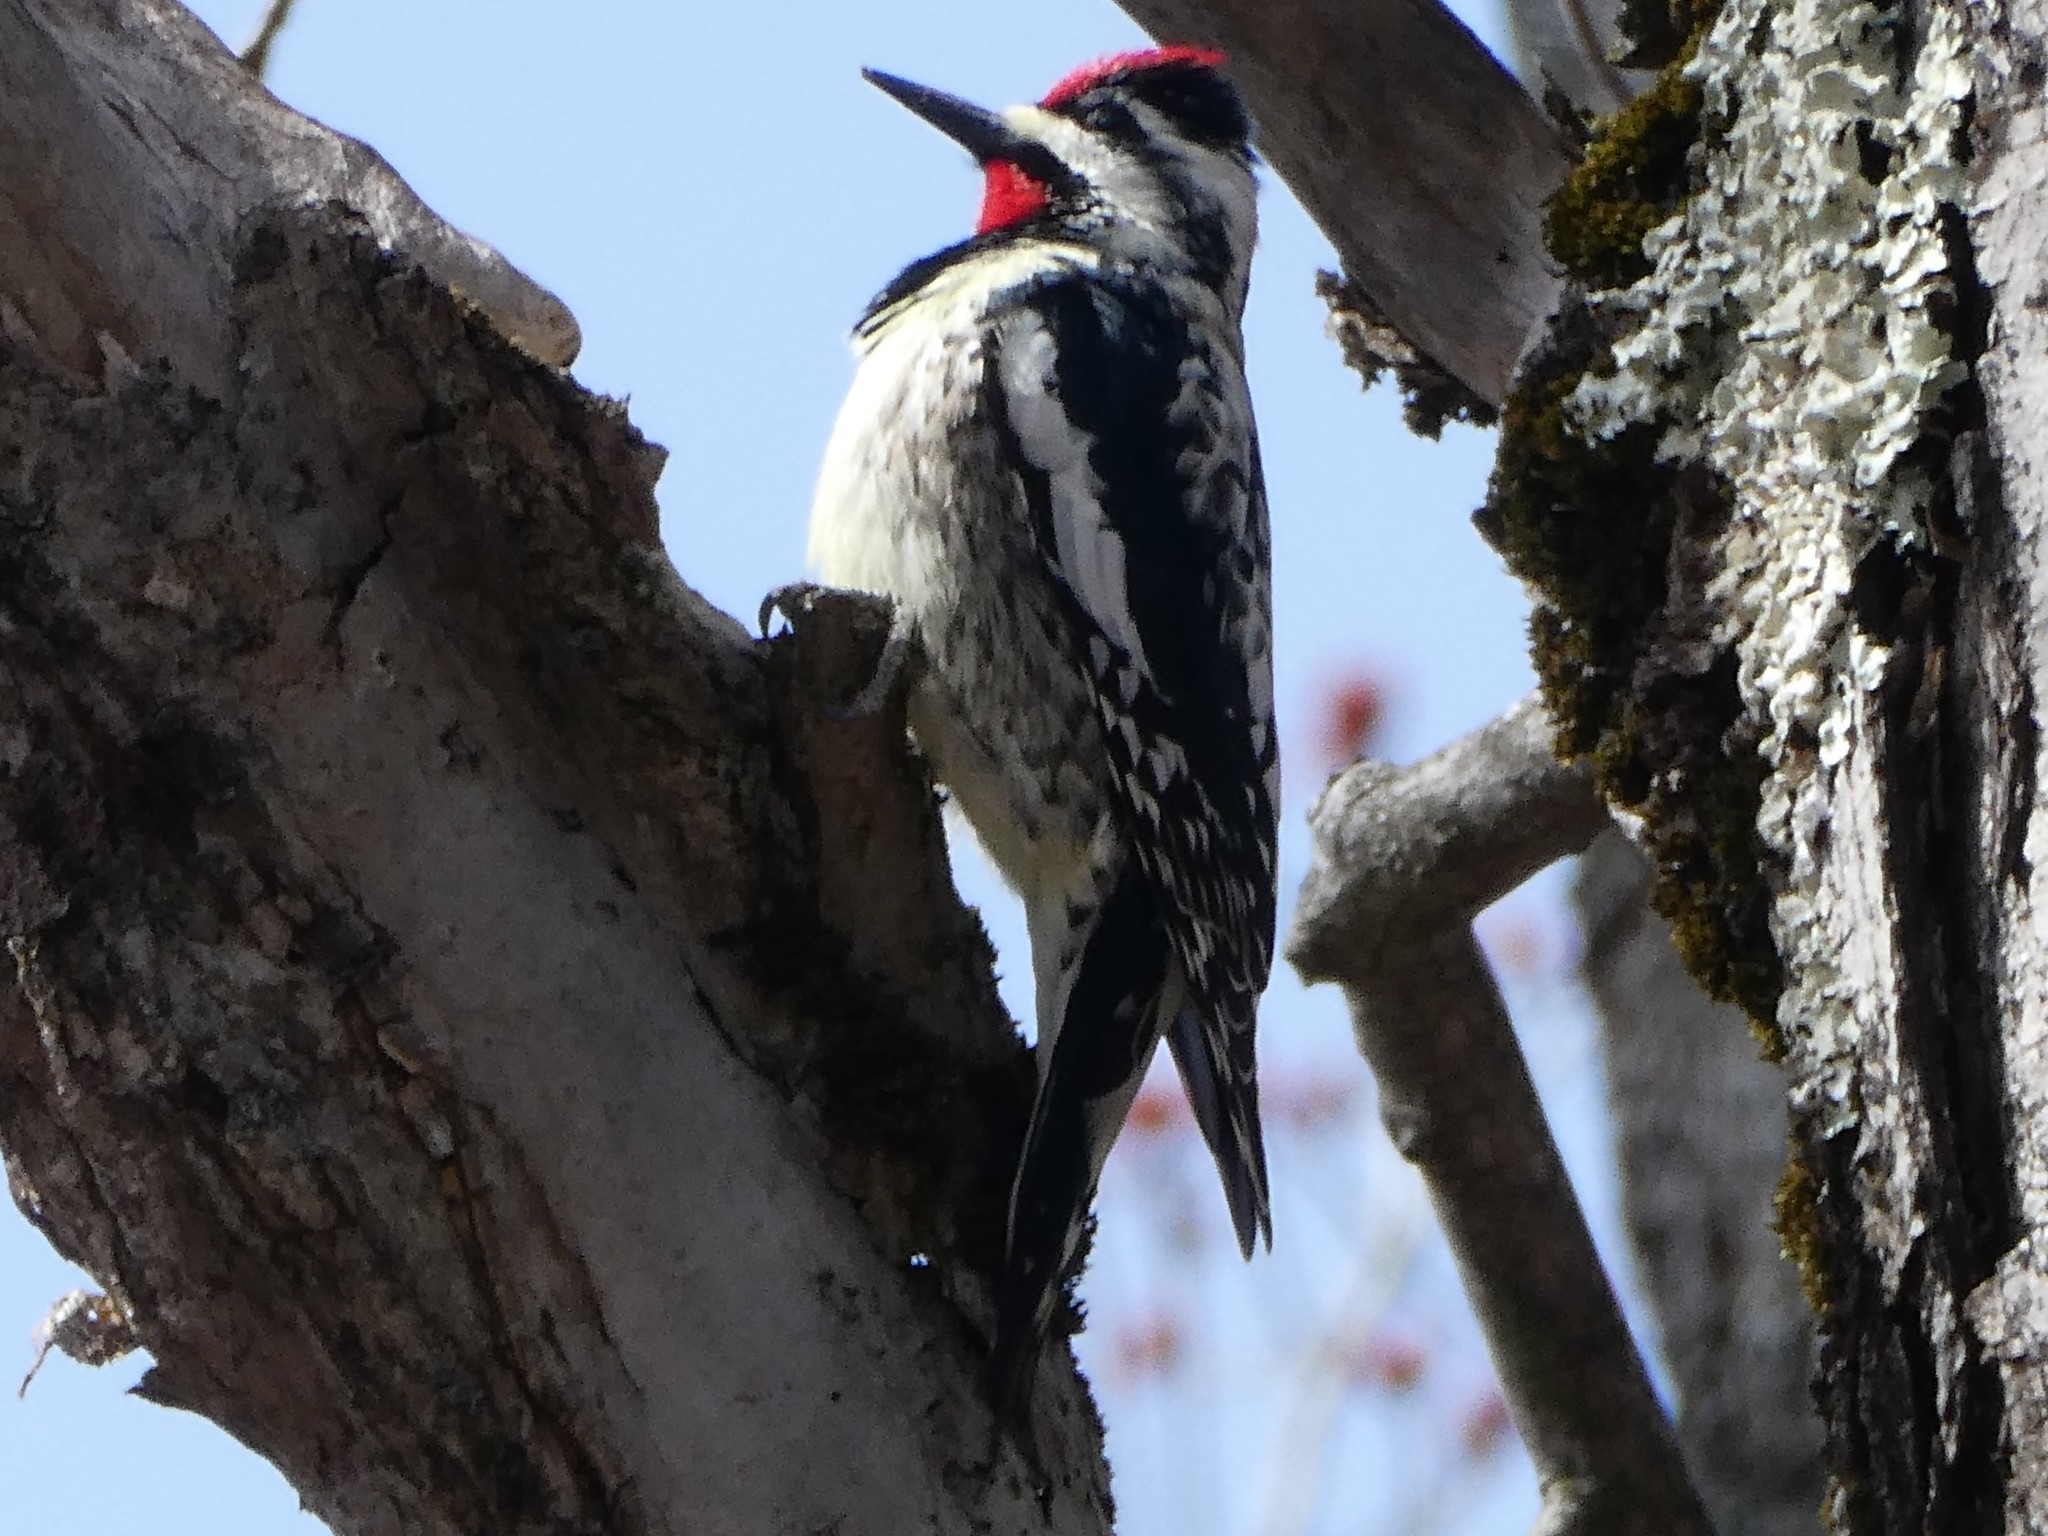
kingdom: Animalia
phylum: Chordata
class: Aves
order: Piciformes
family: Picidae
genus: Sphyrapicus
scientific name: Sphyrapicus varius
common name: Yellow-bellied sapsucker
